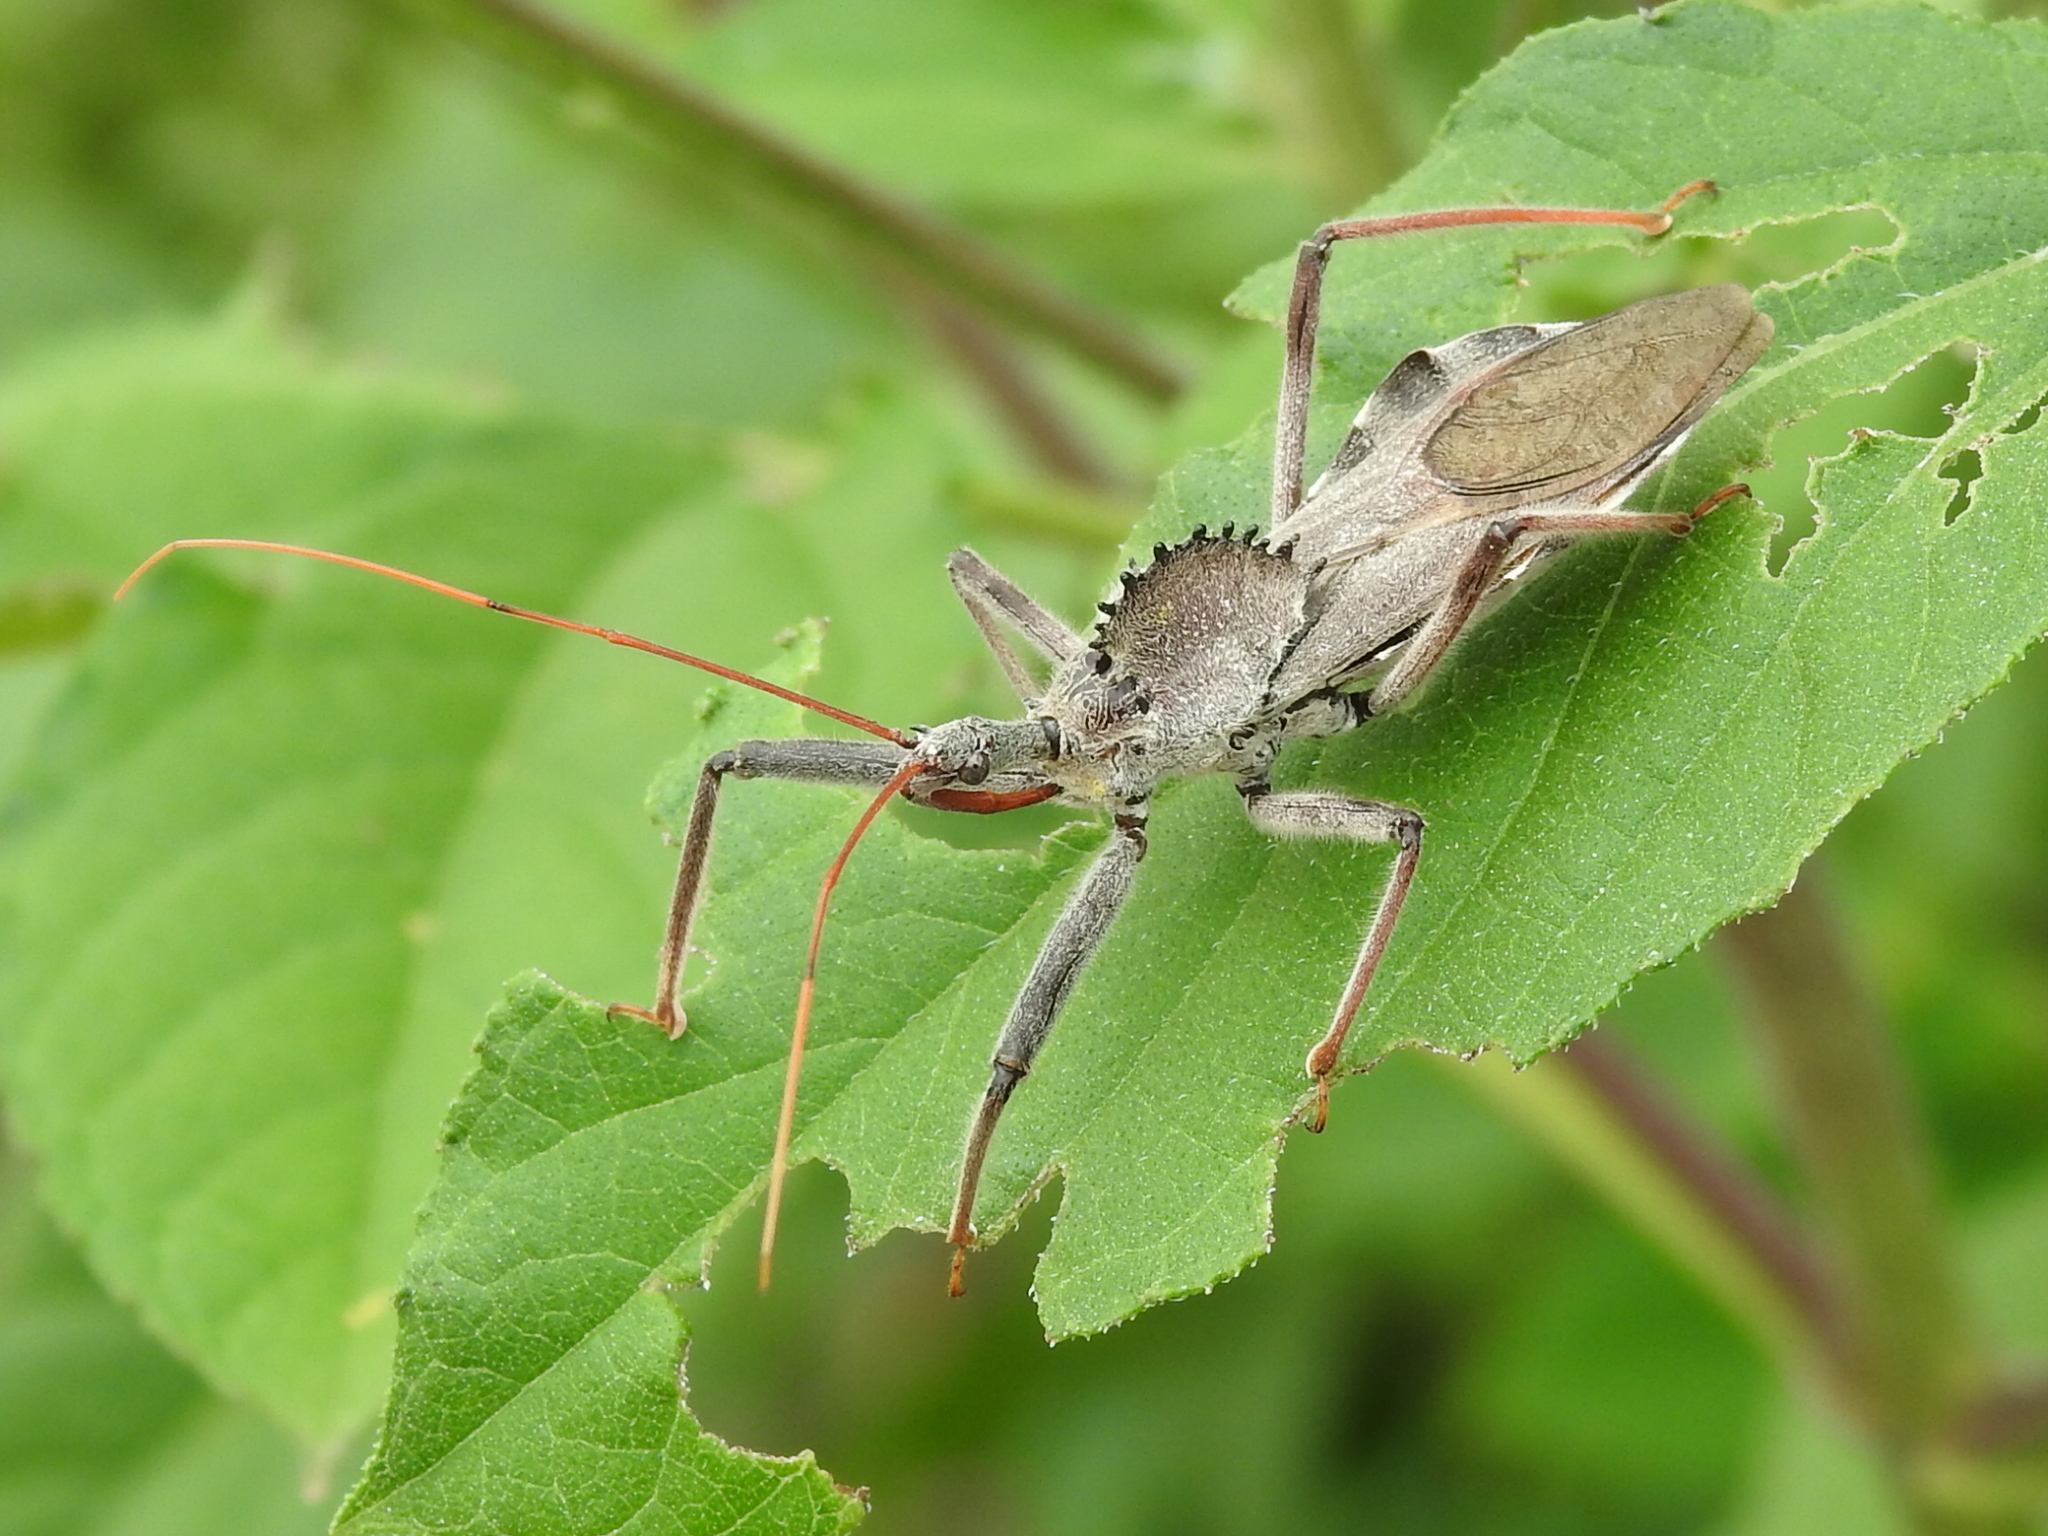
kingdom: Animalia
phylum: Arthropoda
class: Insecta
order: Hemiptera
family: Reduviidae
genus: Arilus
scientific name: Arilus cristatus
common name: North american wheel bug
